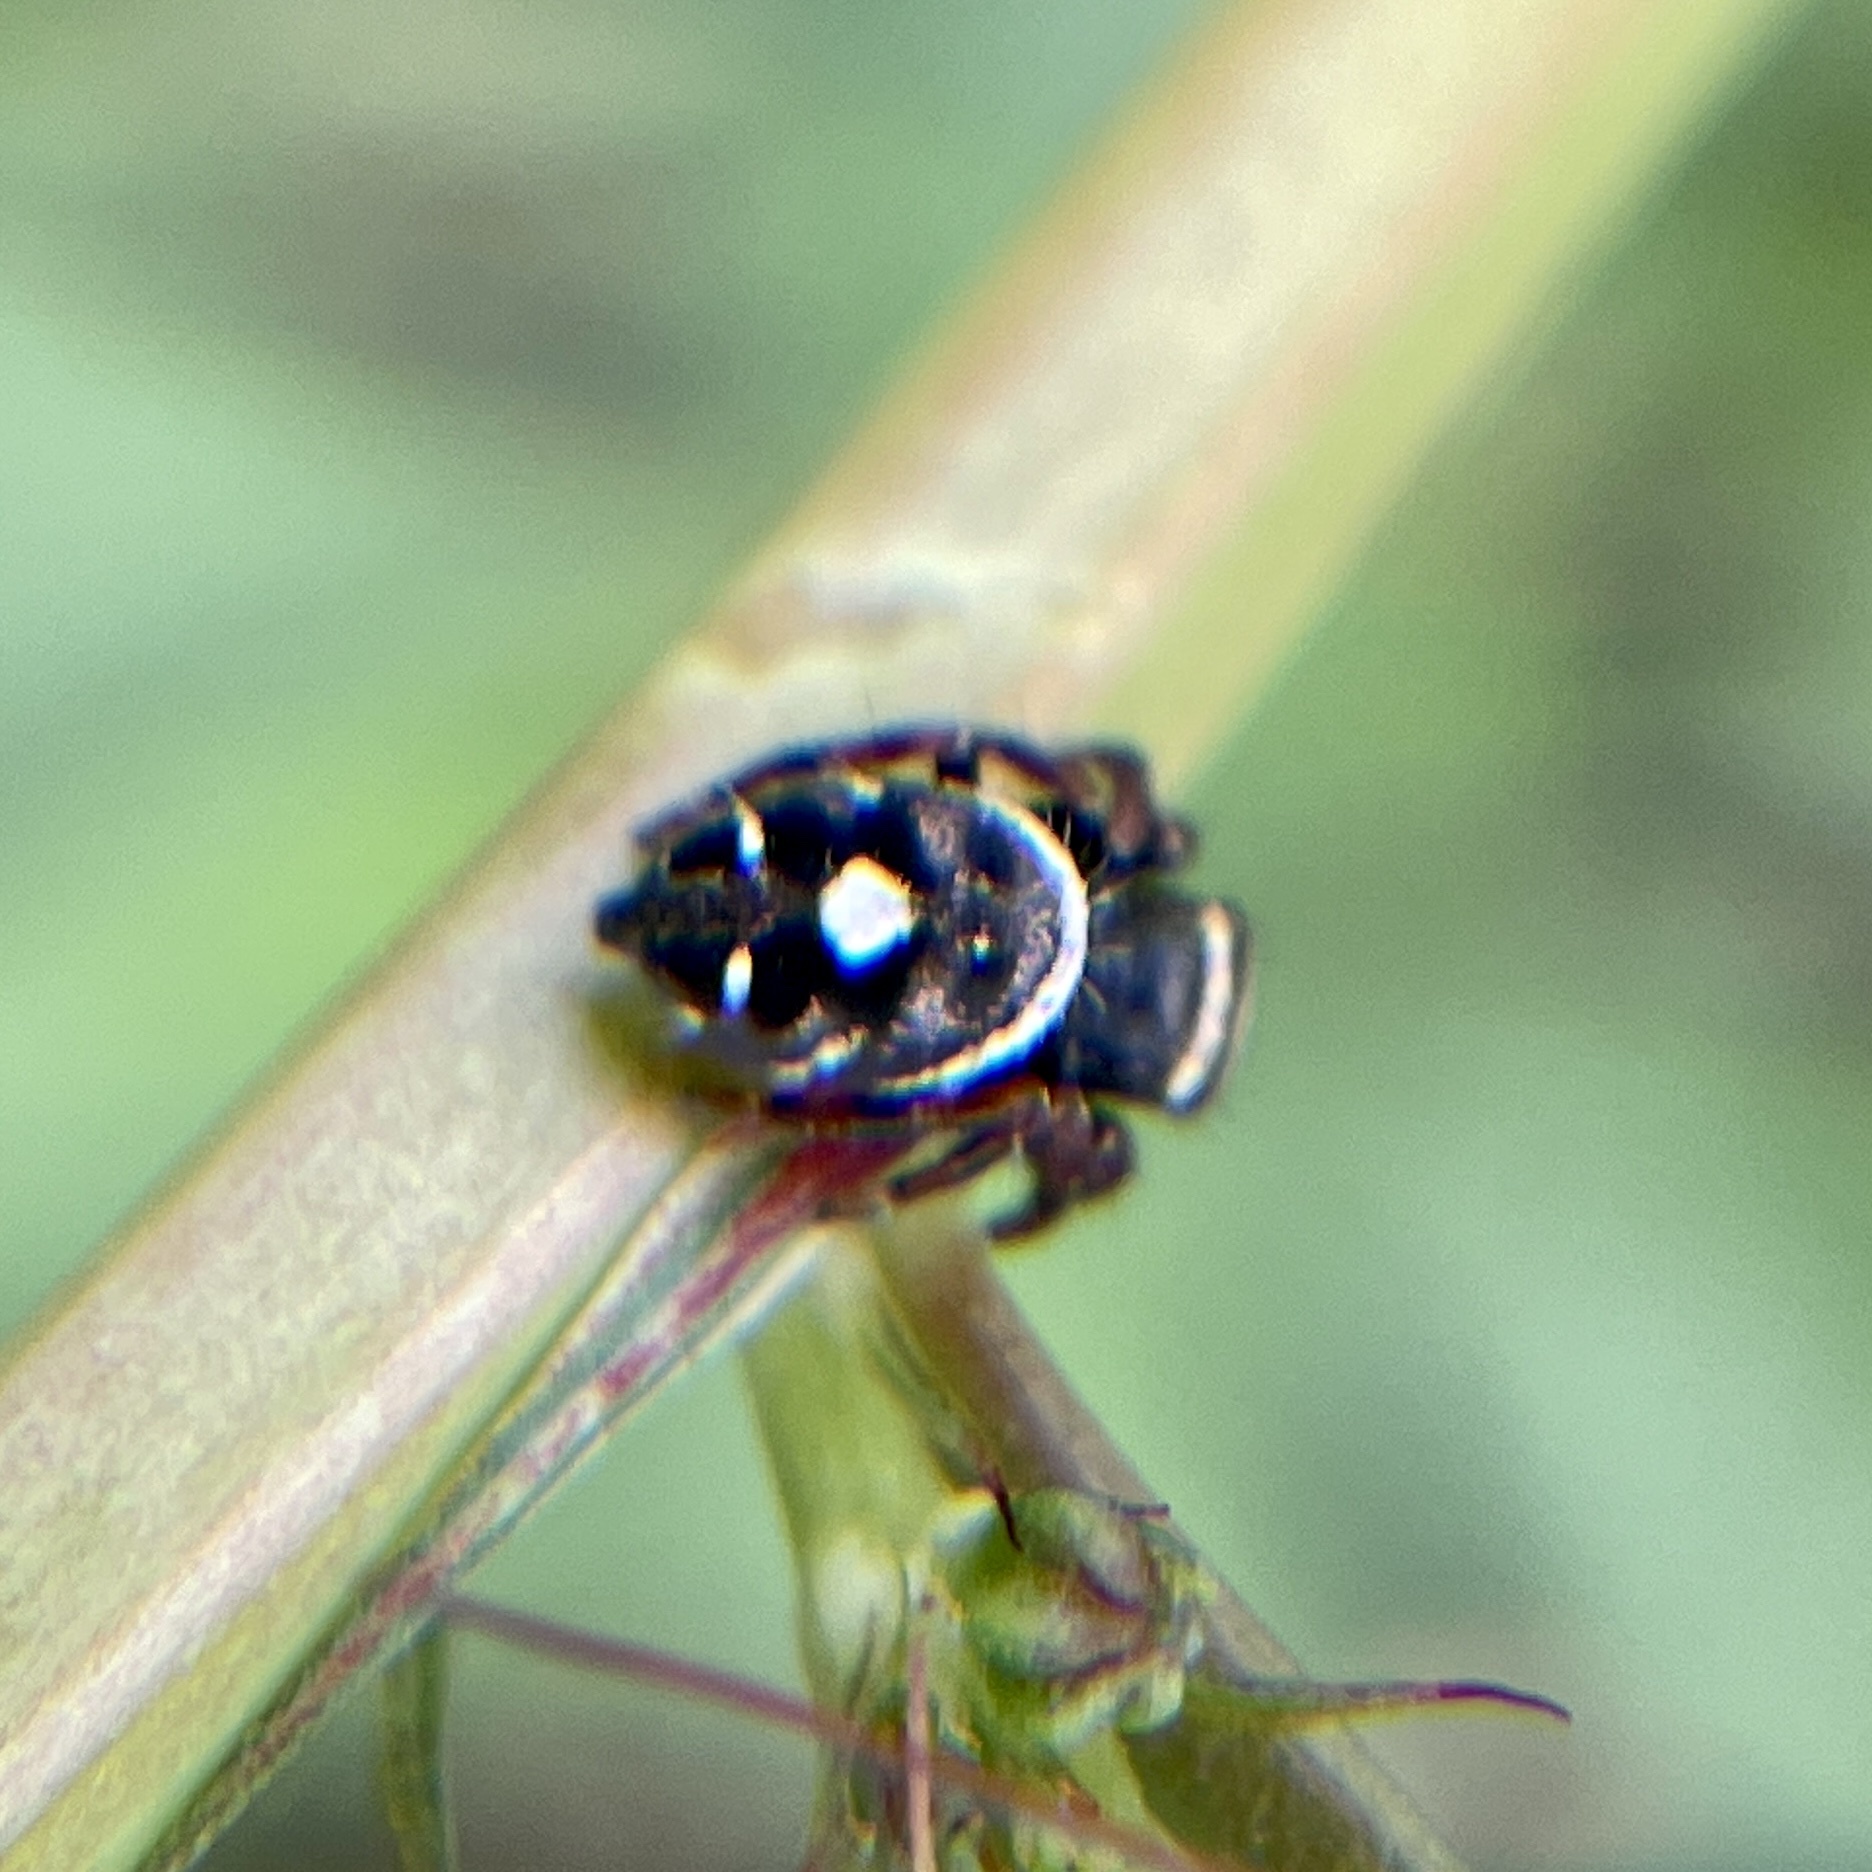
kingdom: Animalia
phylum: Arthropoda
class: Arachnida
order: Araneae
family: Salticidae
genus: Phidippus
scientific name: Phidippus audax
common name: Bold jumper
